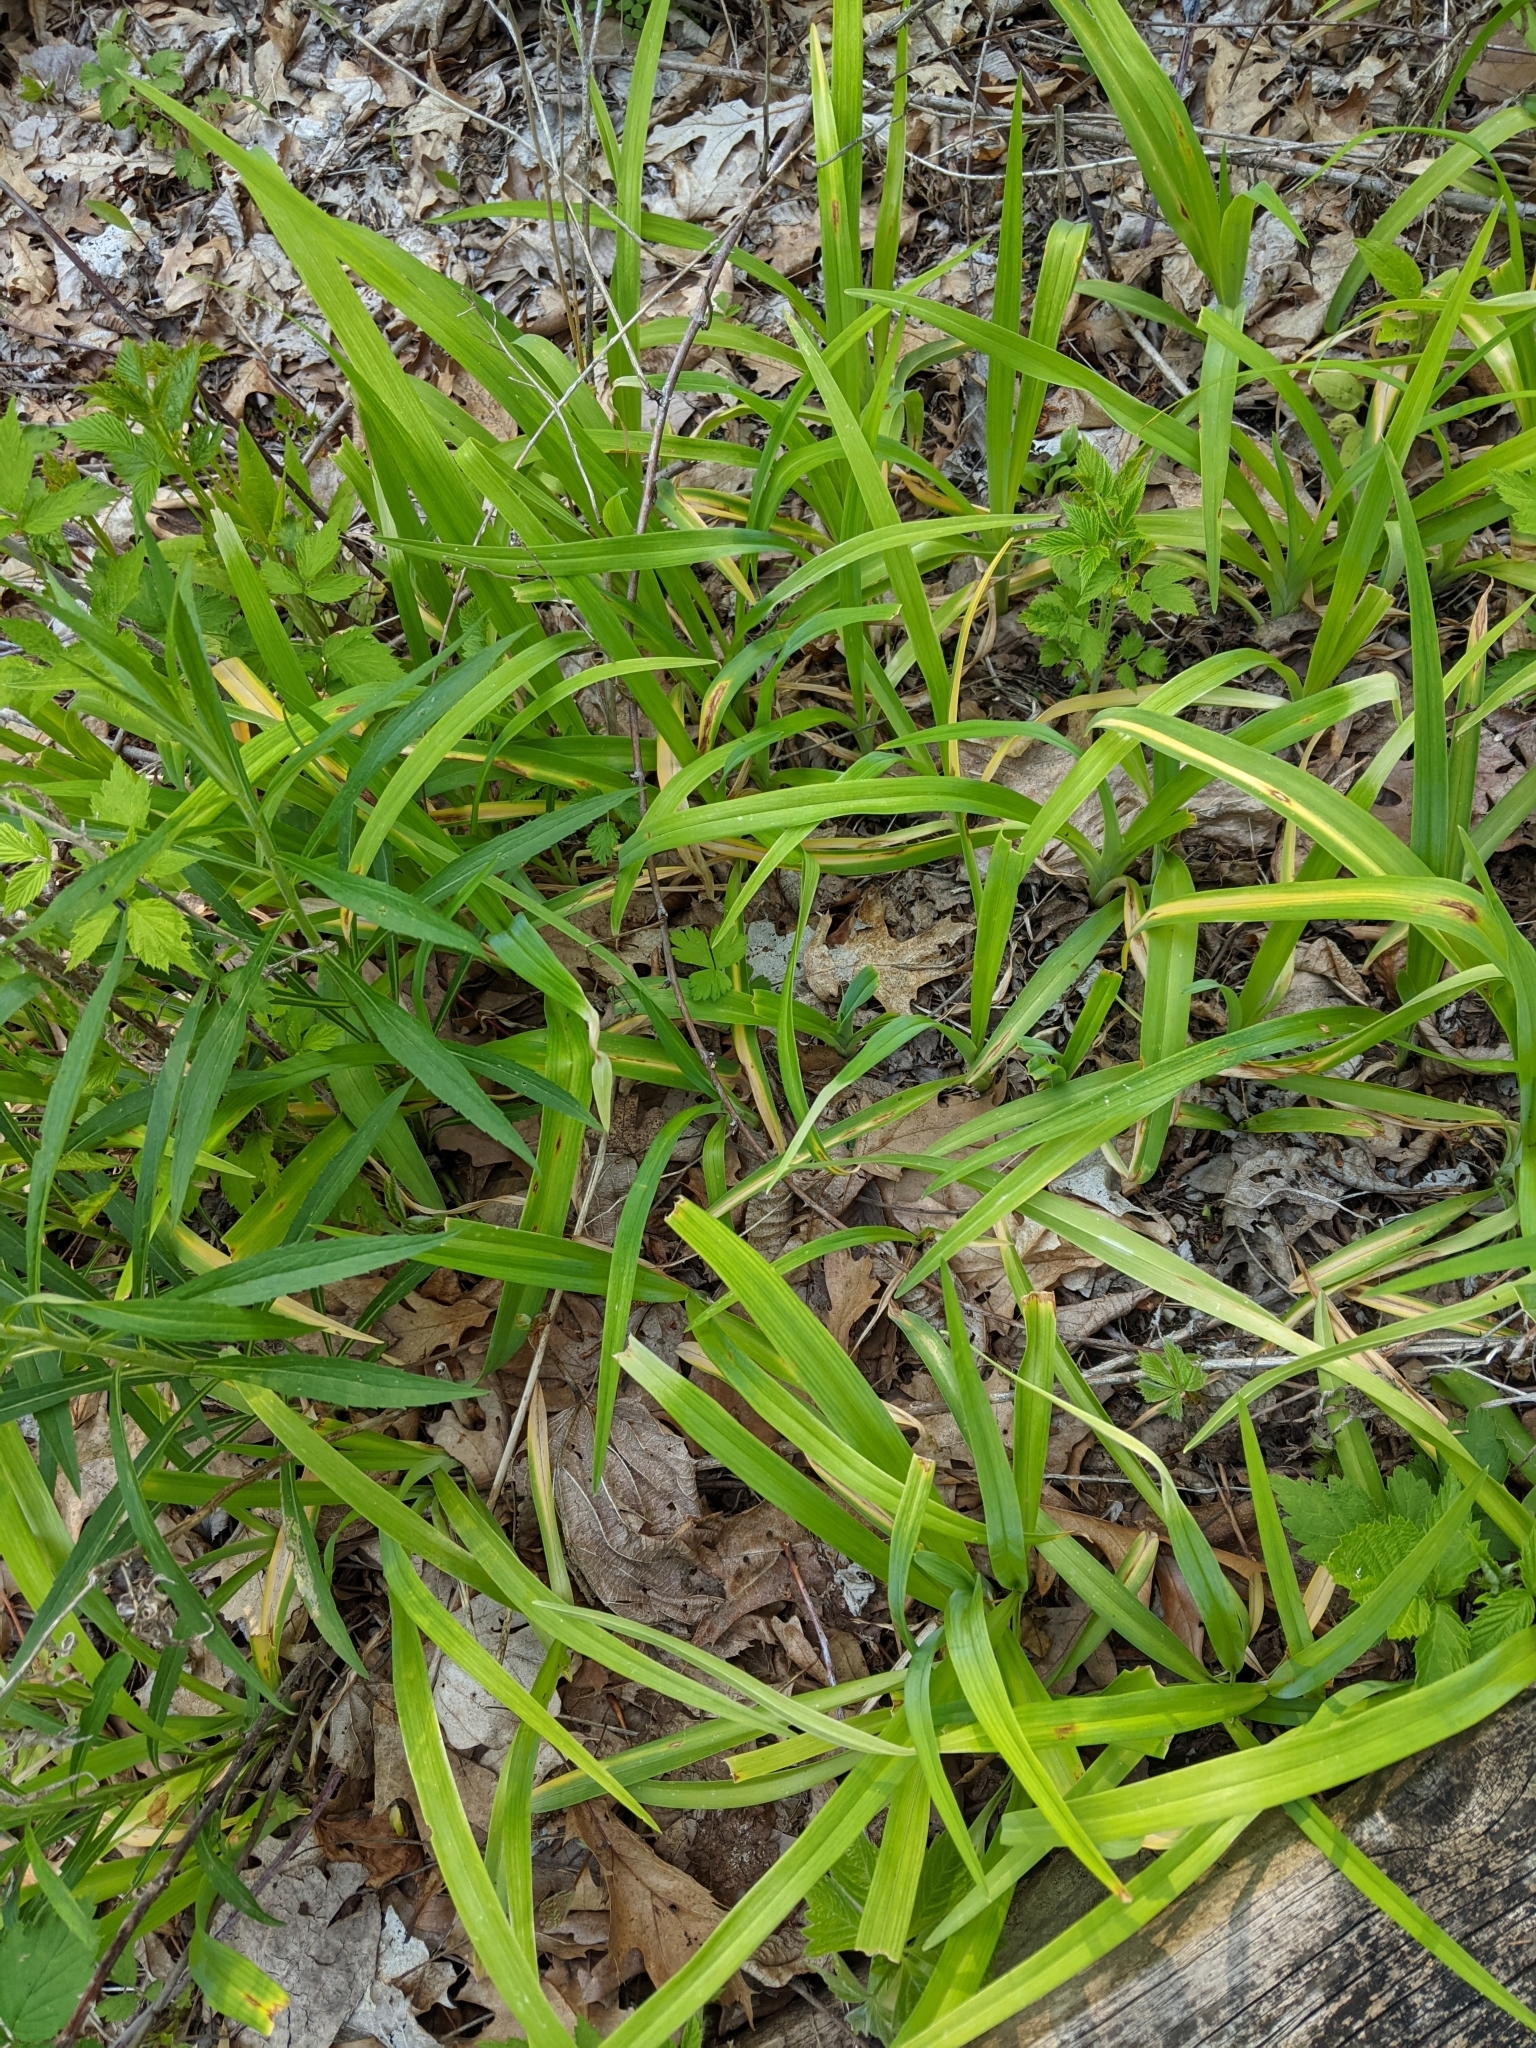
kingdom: Plantae
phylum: Tracheophyta
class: Liliopsida
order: Asparagales
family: Asphodelaceae
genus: Hemerocallis
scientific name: Hemerocallis fulva
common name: Orange day-lily
